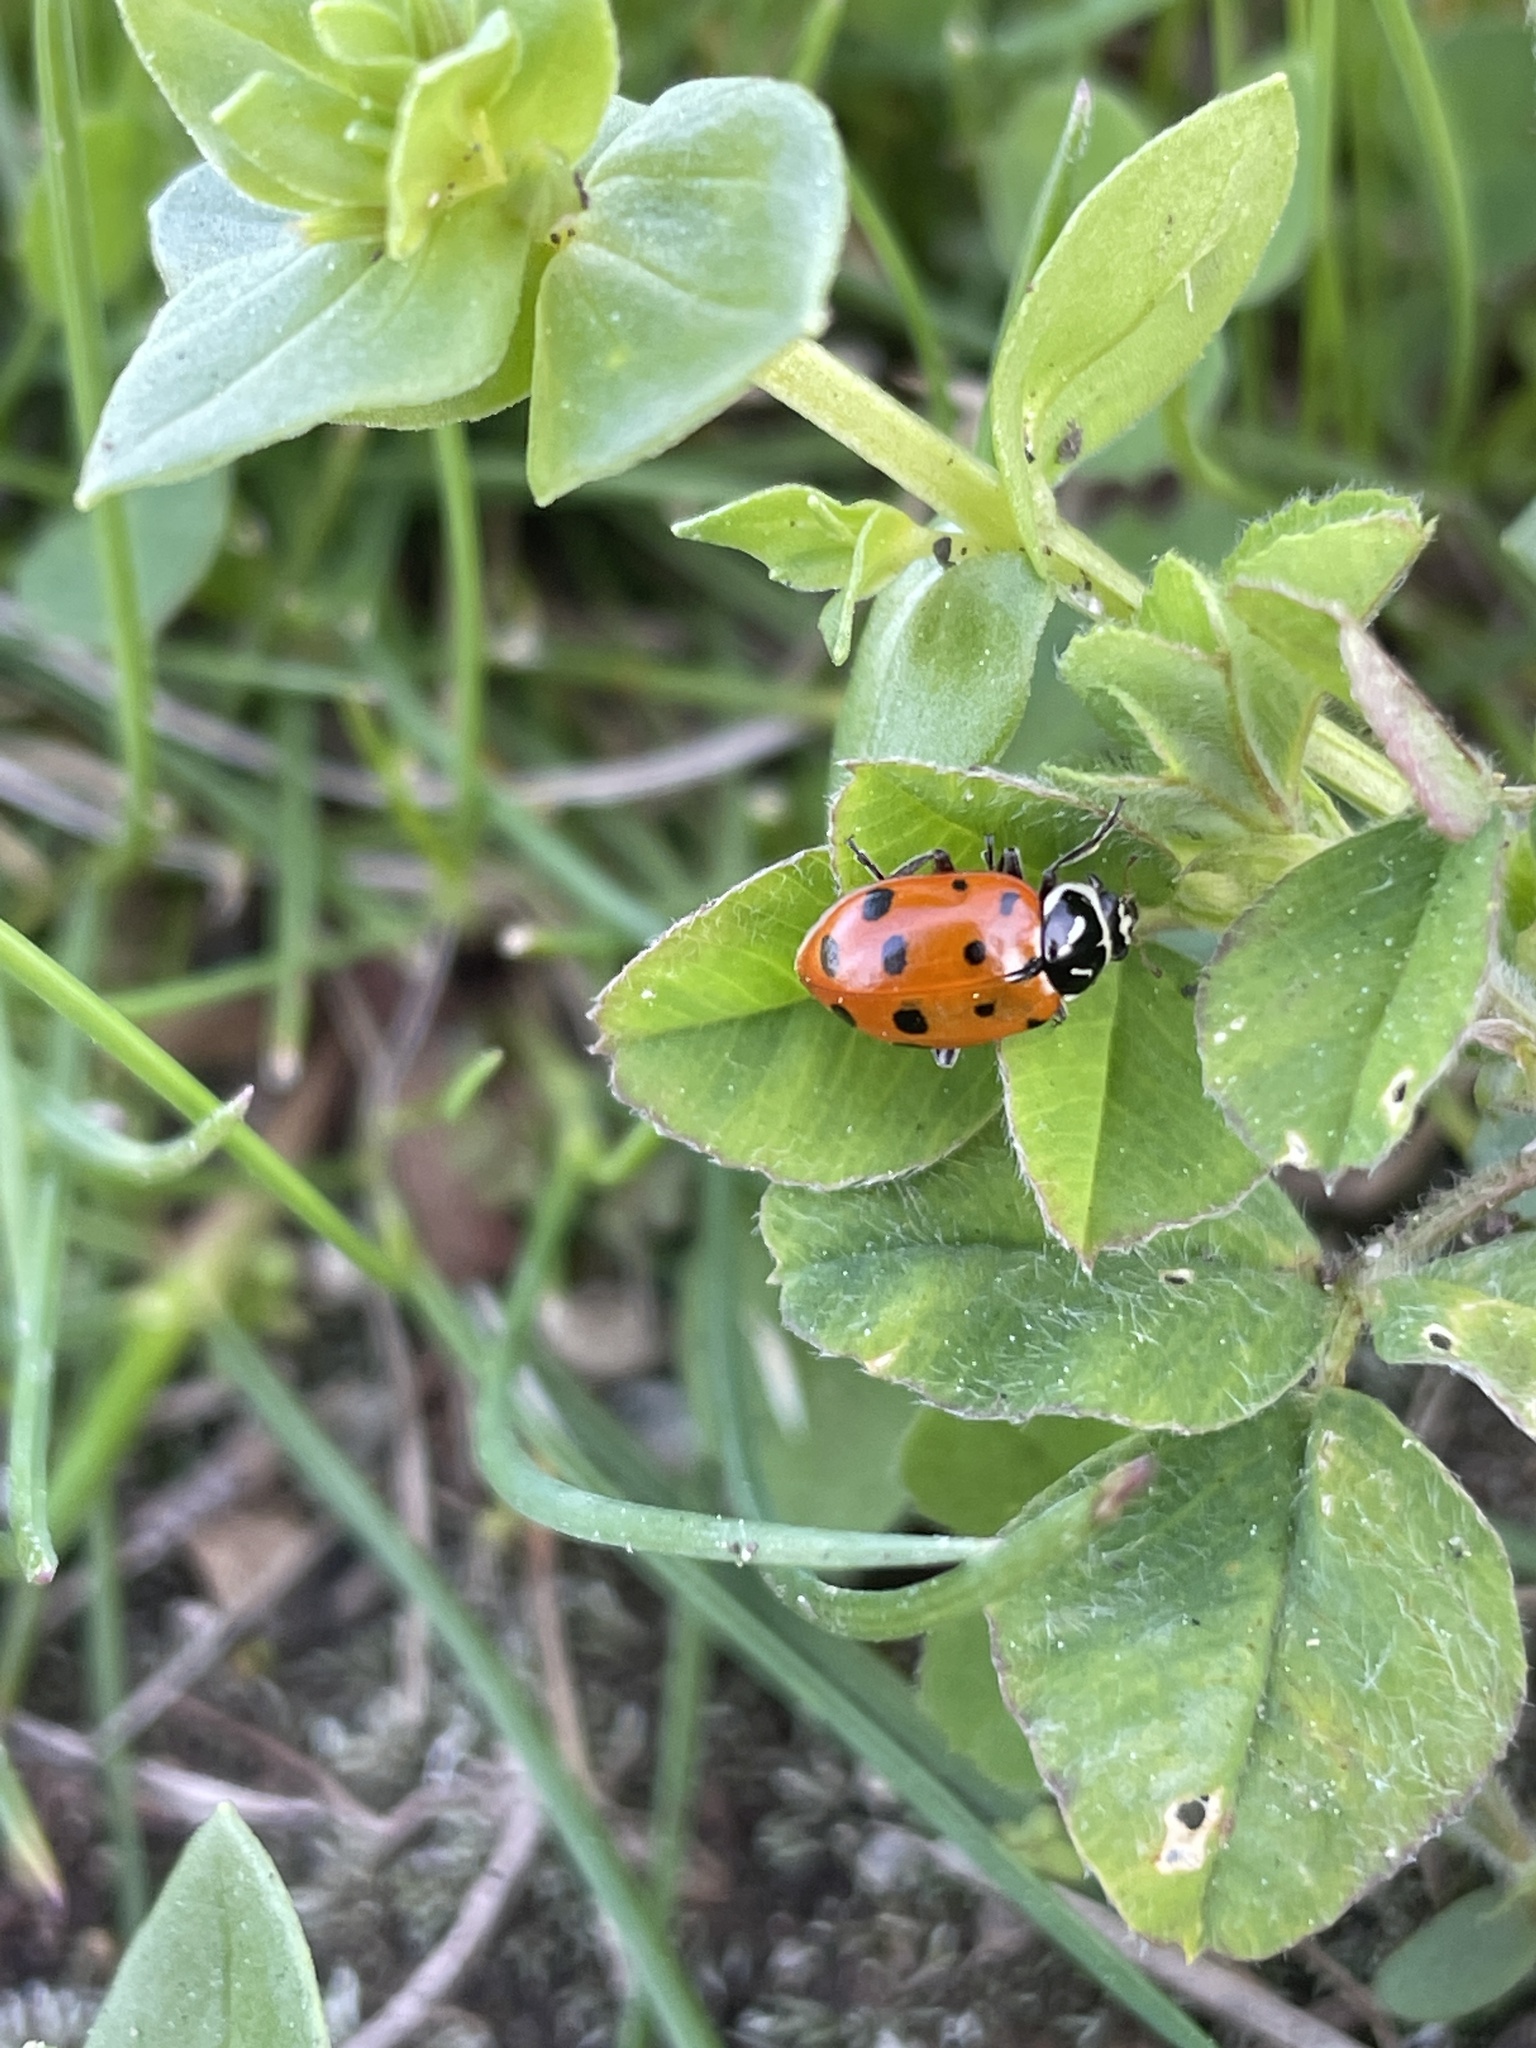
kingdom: Animalia
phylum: Arthropoda
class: Insecta
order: Coleoptera
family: Coccinellidae
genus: Hippodamia
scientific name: Hippodamia convergens
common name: Convergent lady beetle
